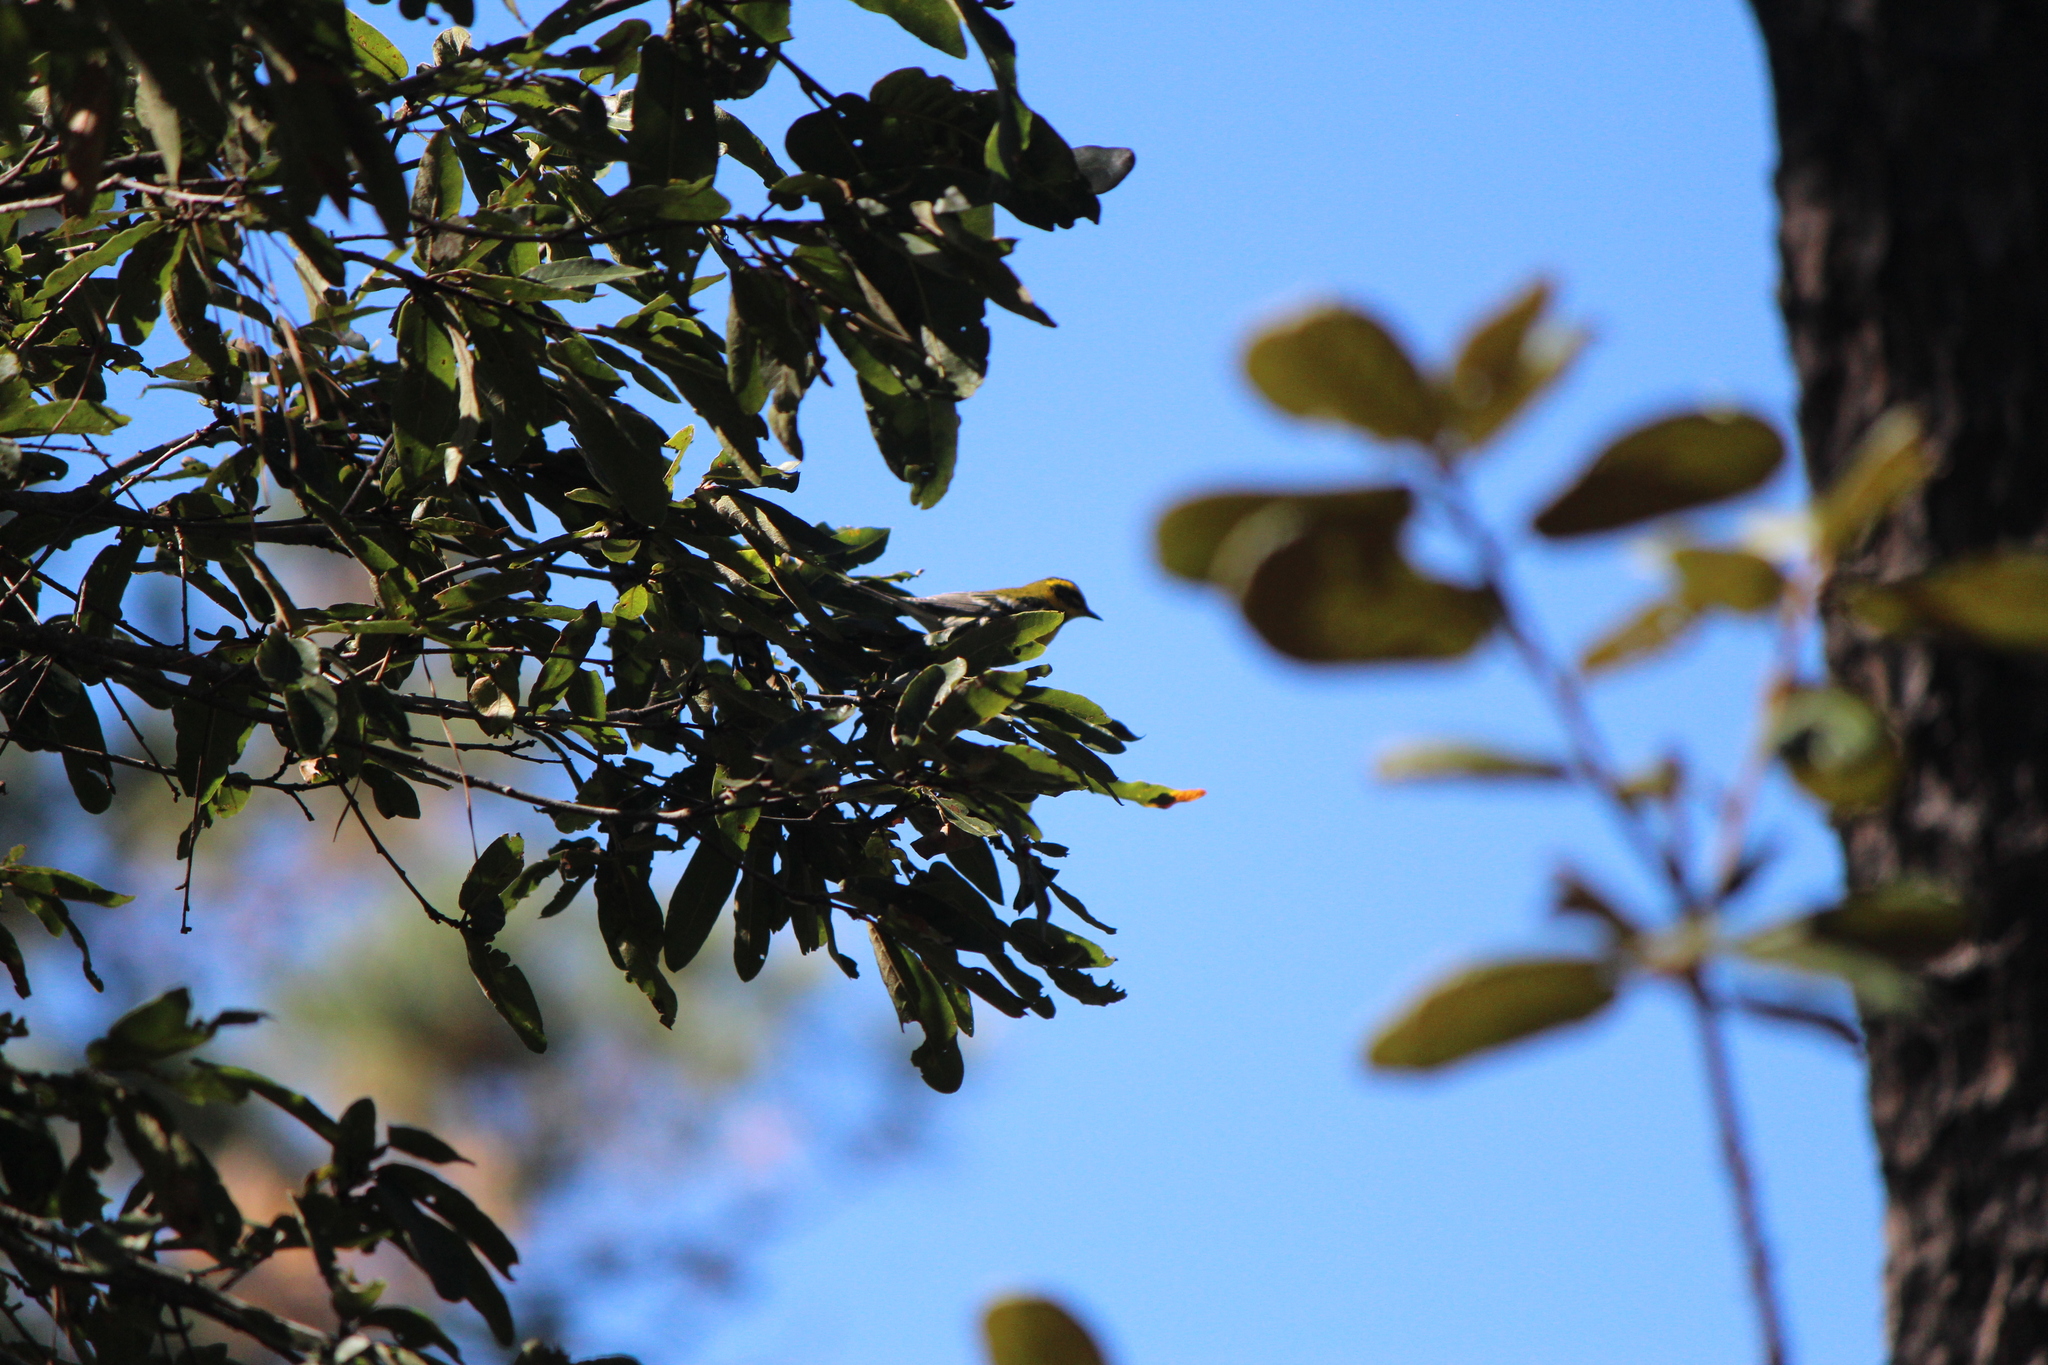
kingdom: Animalia
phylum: Chordata
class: Aves
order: Passeriformes
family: Parulidae
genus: Setophaga
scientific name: Setophaga townsendi
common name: Townsend's warbler
